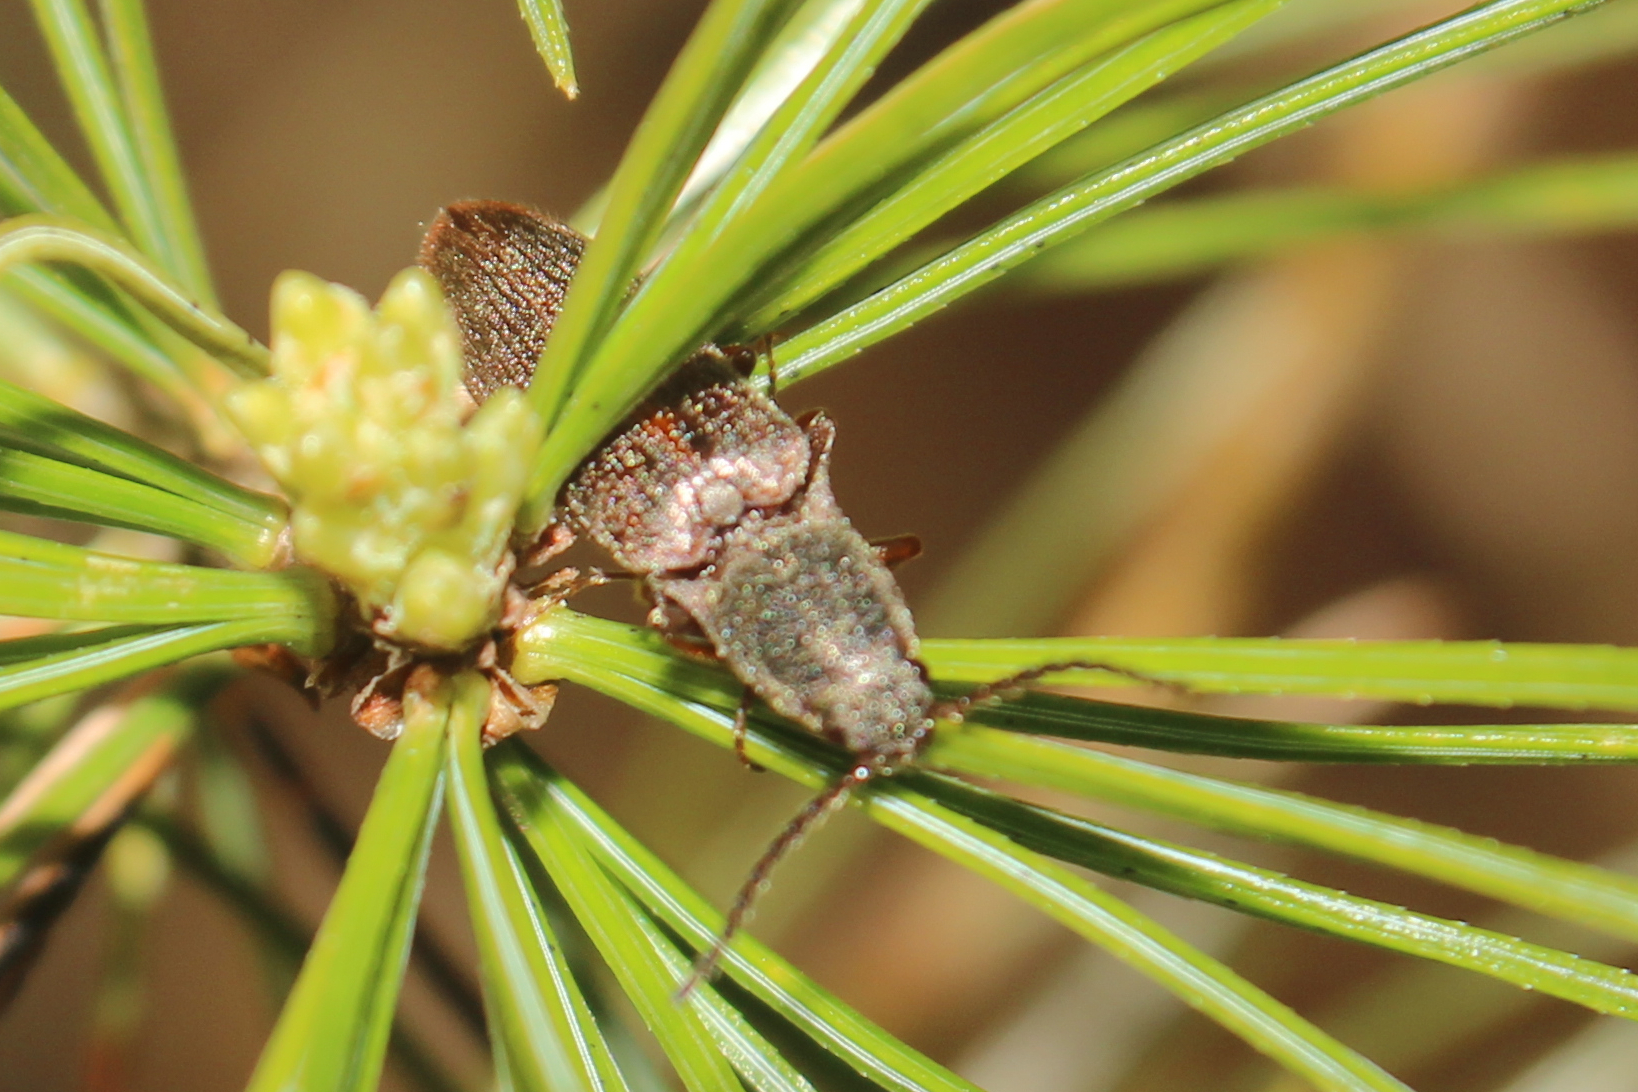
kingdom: Animalia
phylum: Arthropoda
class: Insecta
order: Coleoptera
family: Elateridae
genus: Sylvanelater
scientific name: Sylvanelater cylindriformis
